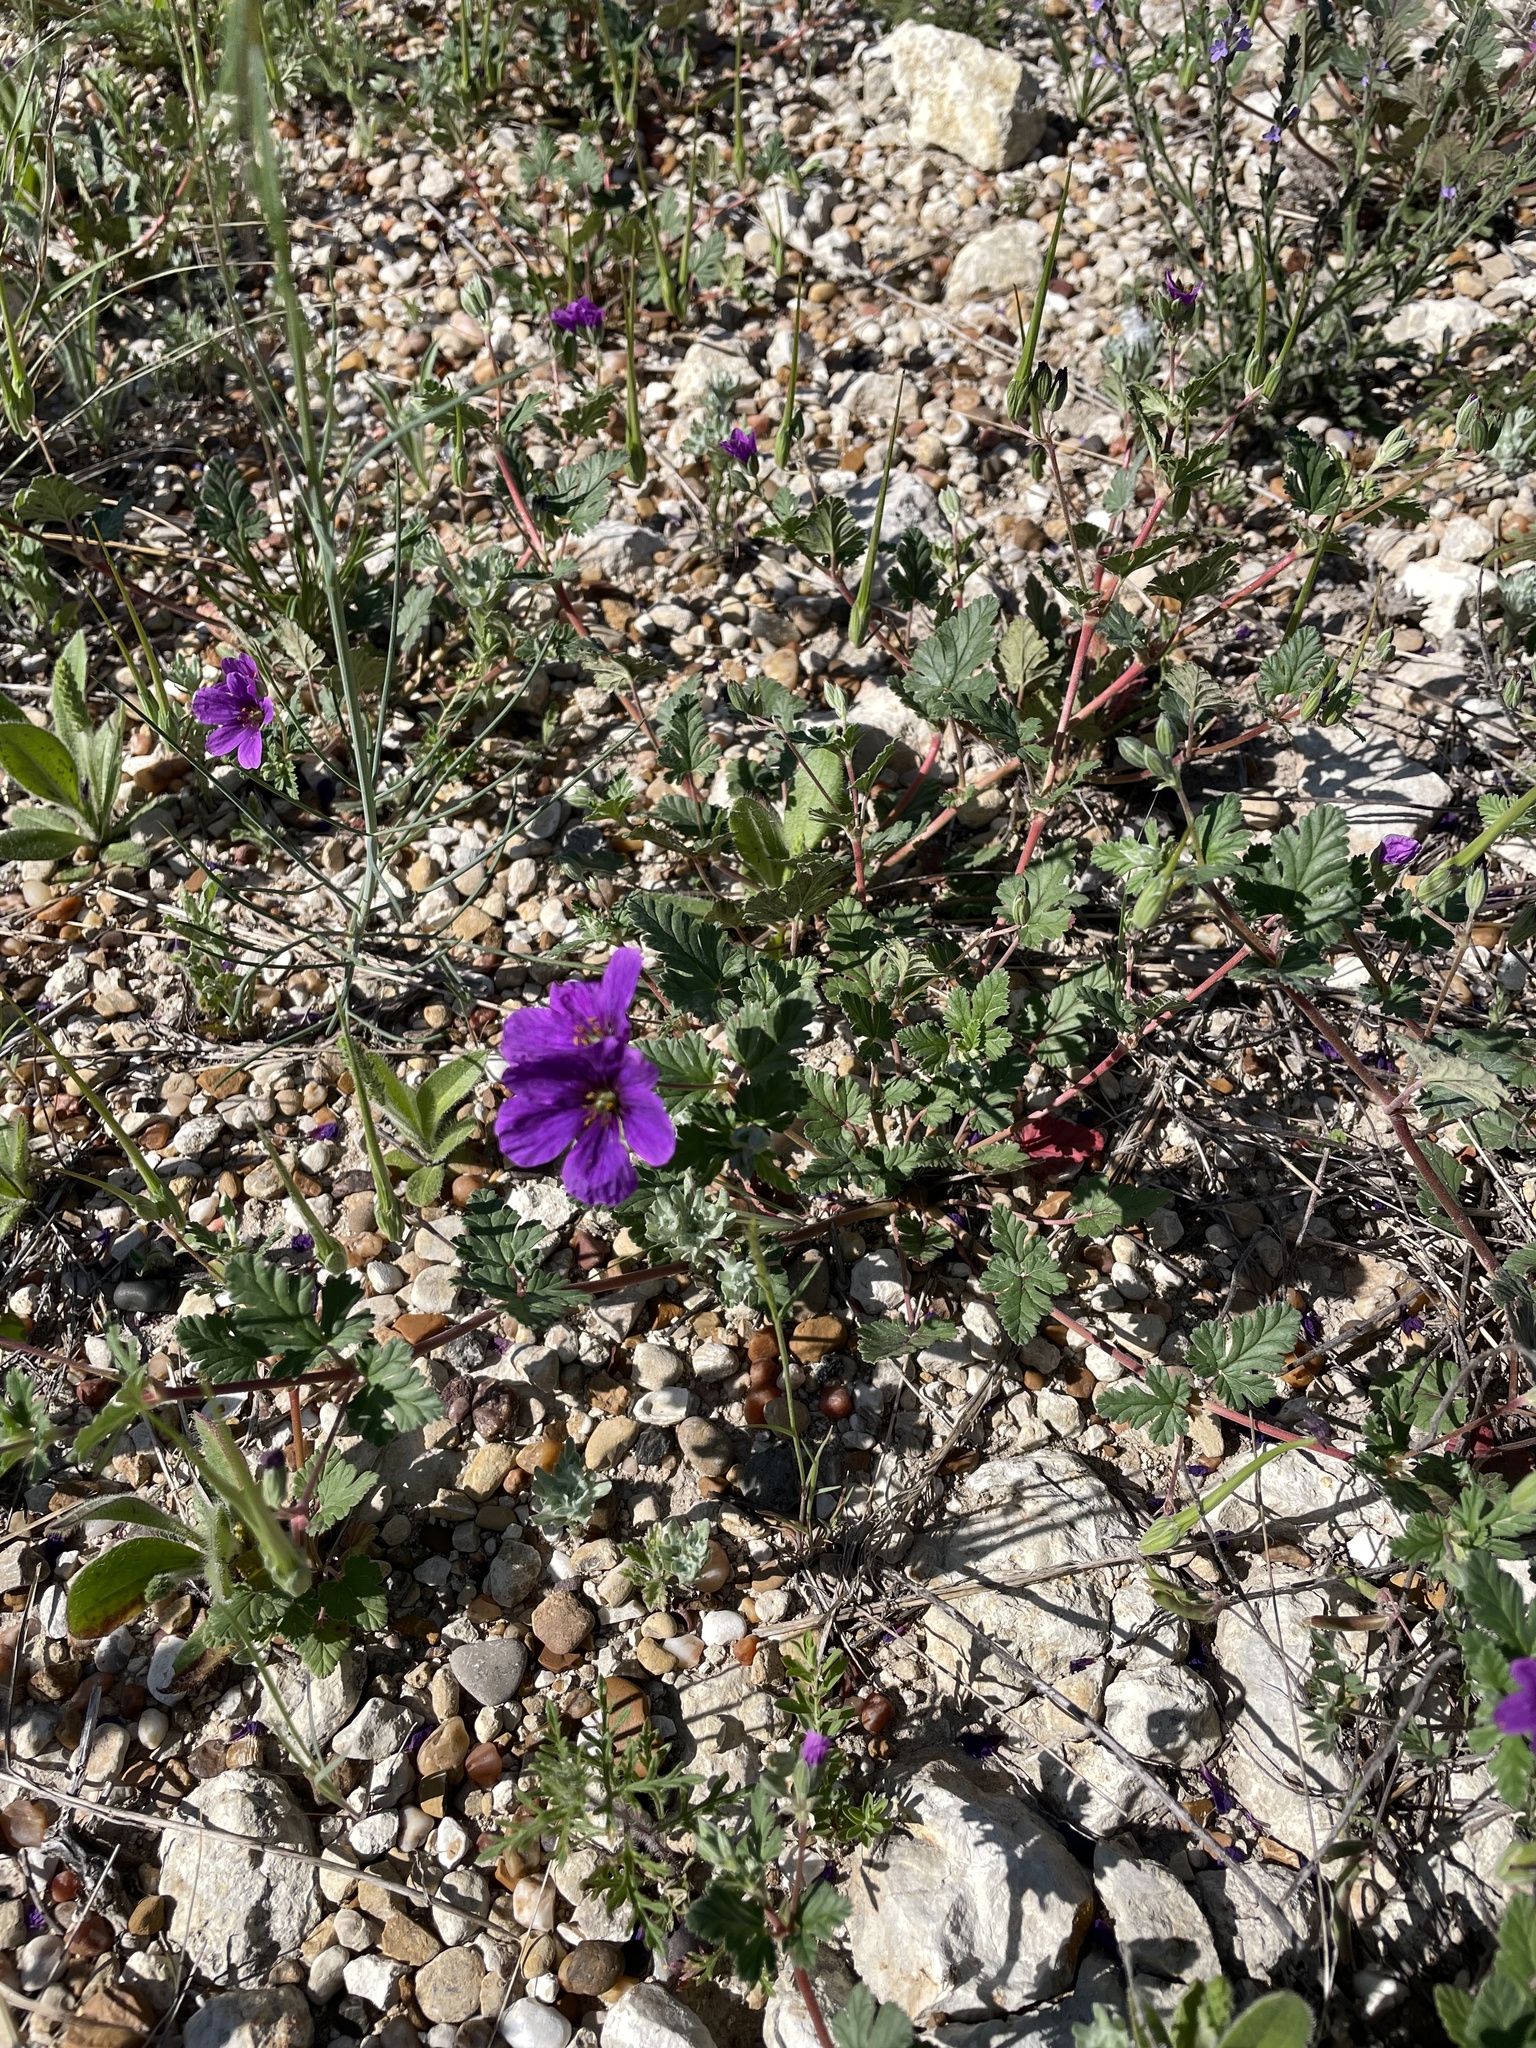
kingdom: Plantae
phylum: Tracheophyta
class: Magnoliopsida
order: Geraniales
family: Geraniaceae
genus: Erodium
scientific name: Erodium texanum
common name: Texas stork's-bill
